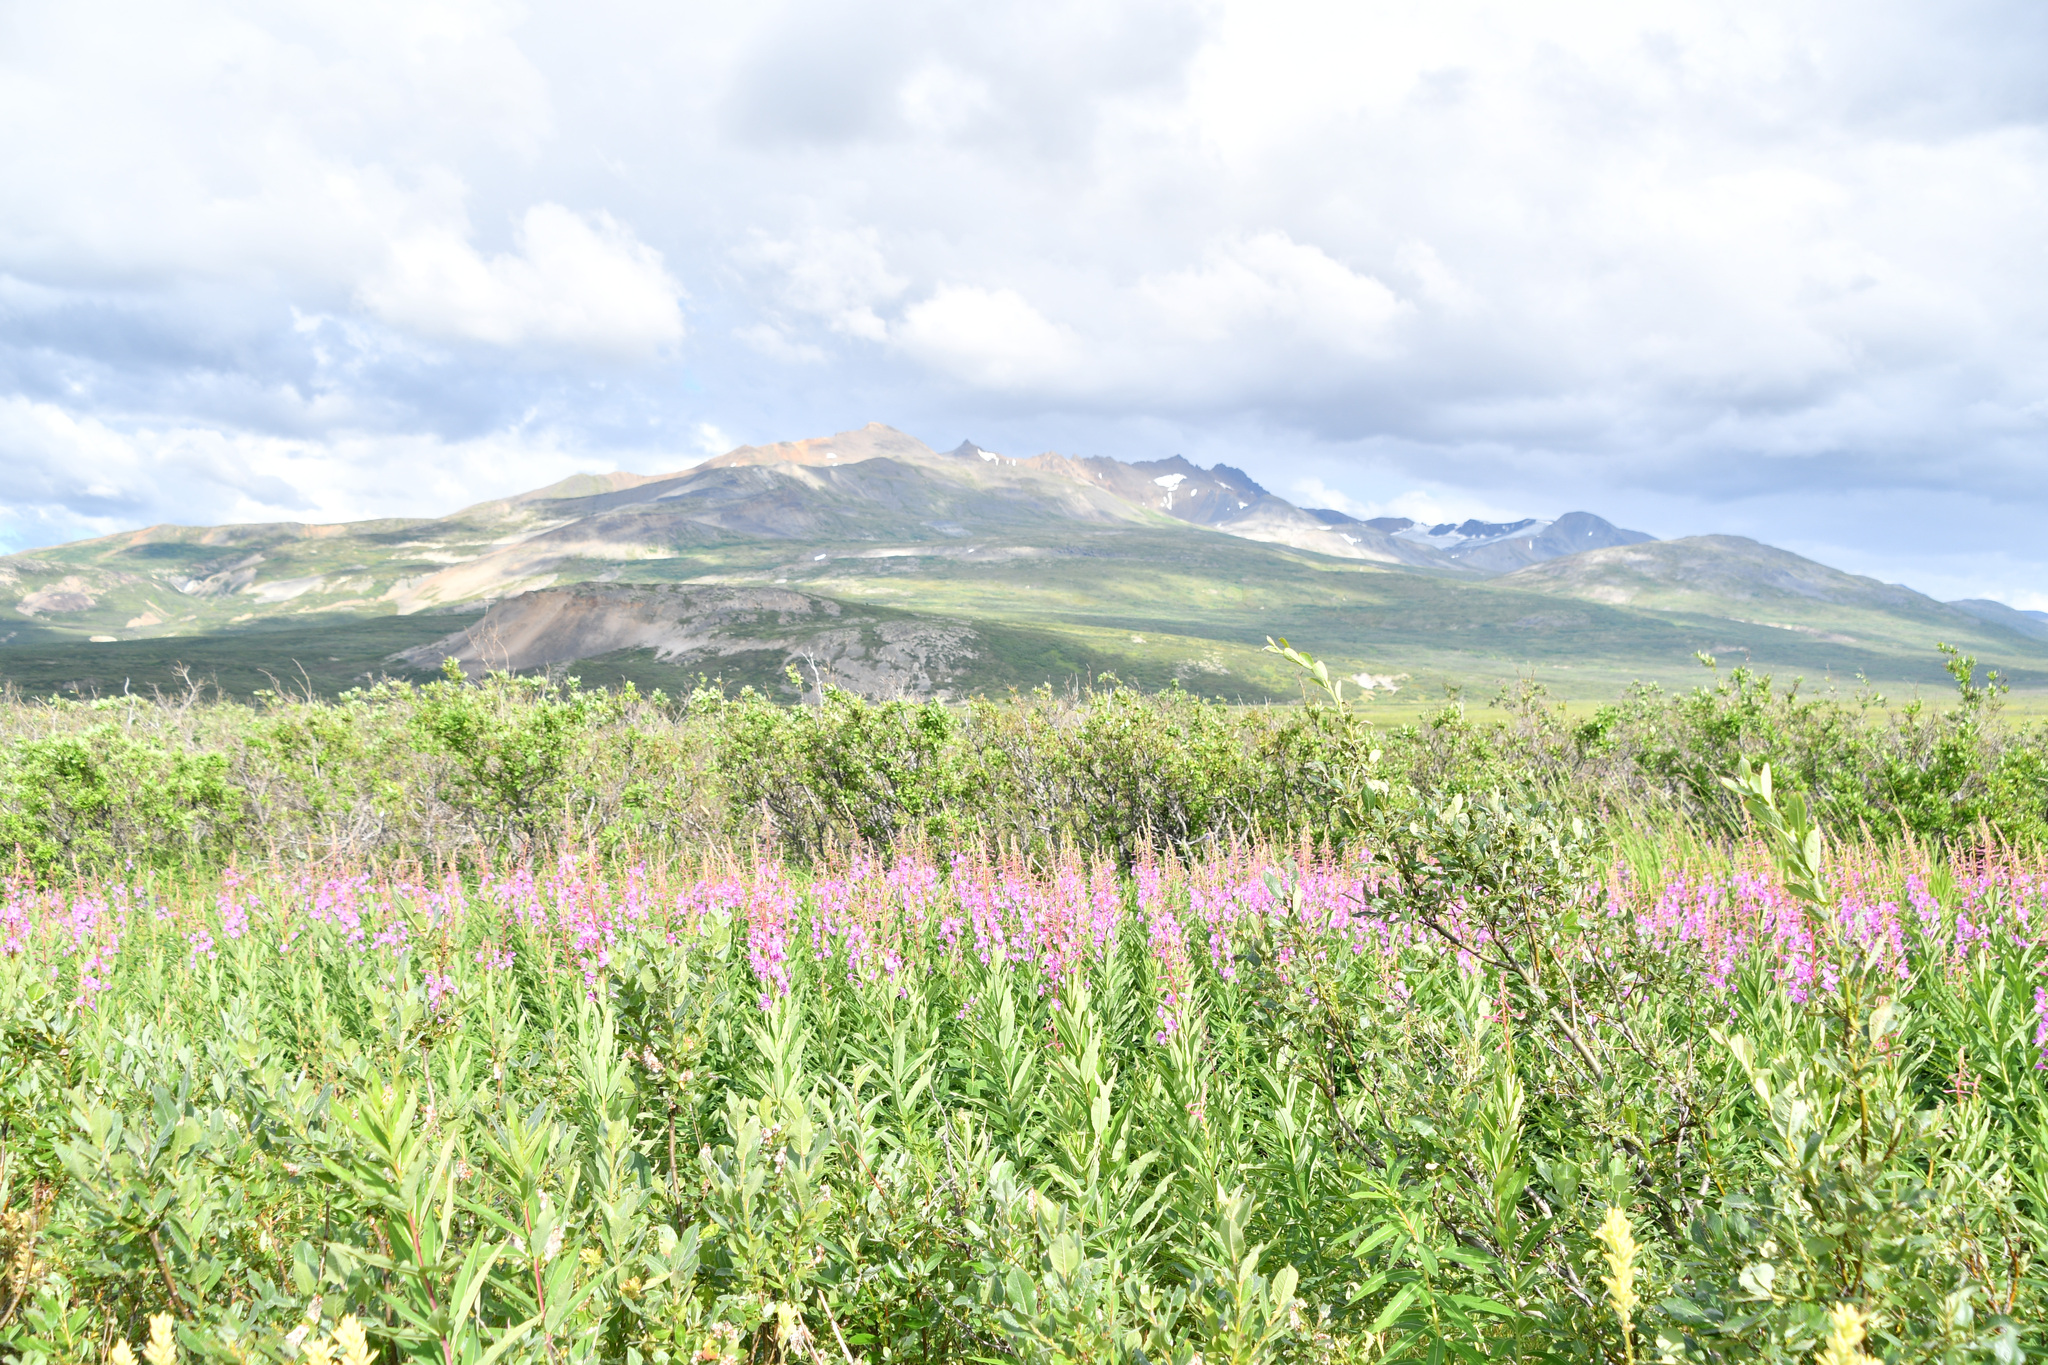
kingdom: Plantae
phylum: Tracheophyta
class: Magnoliopsida
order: Myrtales
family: Onagraceae
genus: Chamaenerion
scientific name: Chamaenerion angustifolium
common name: Fireweed
